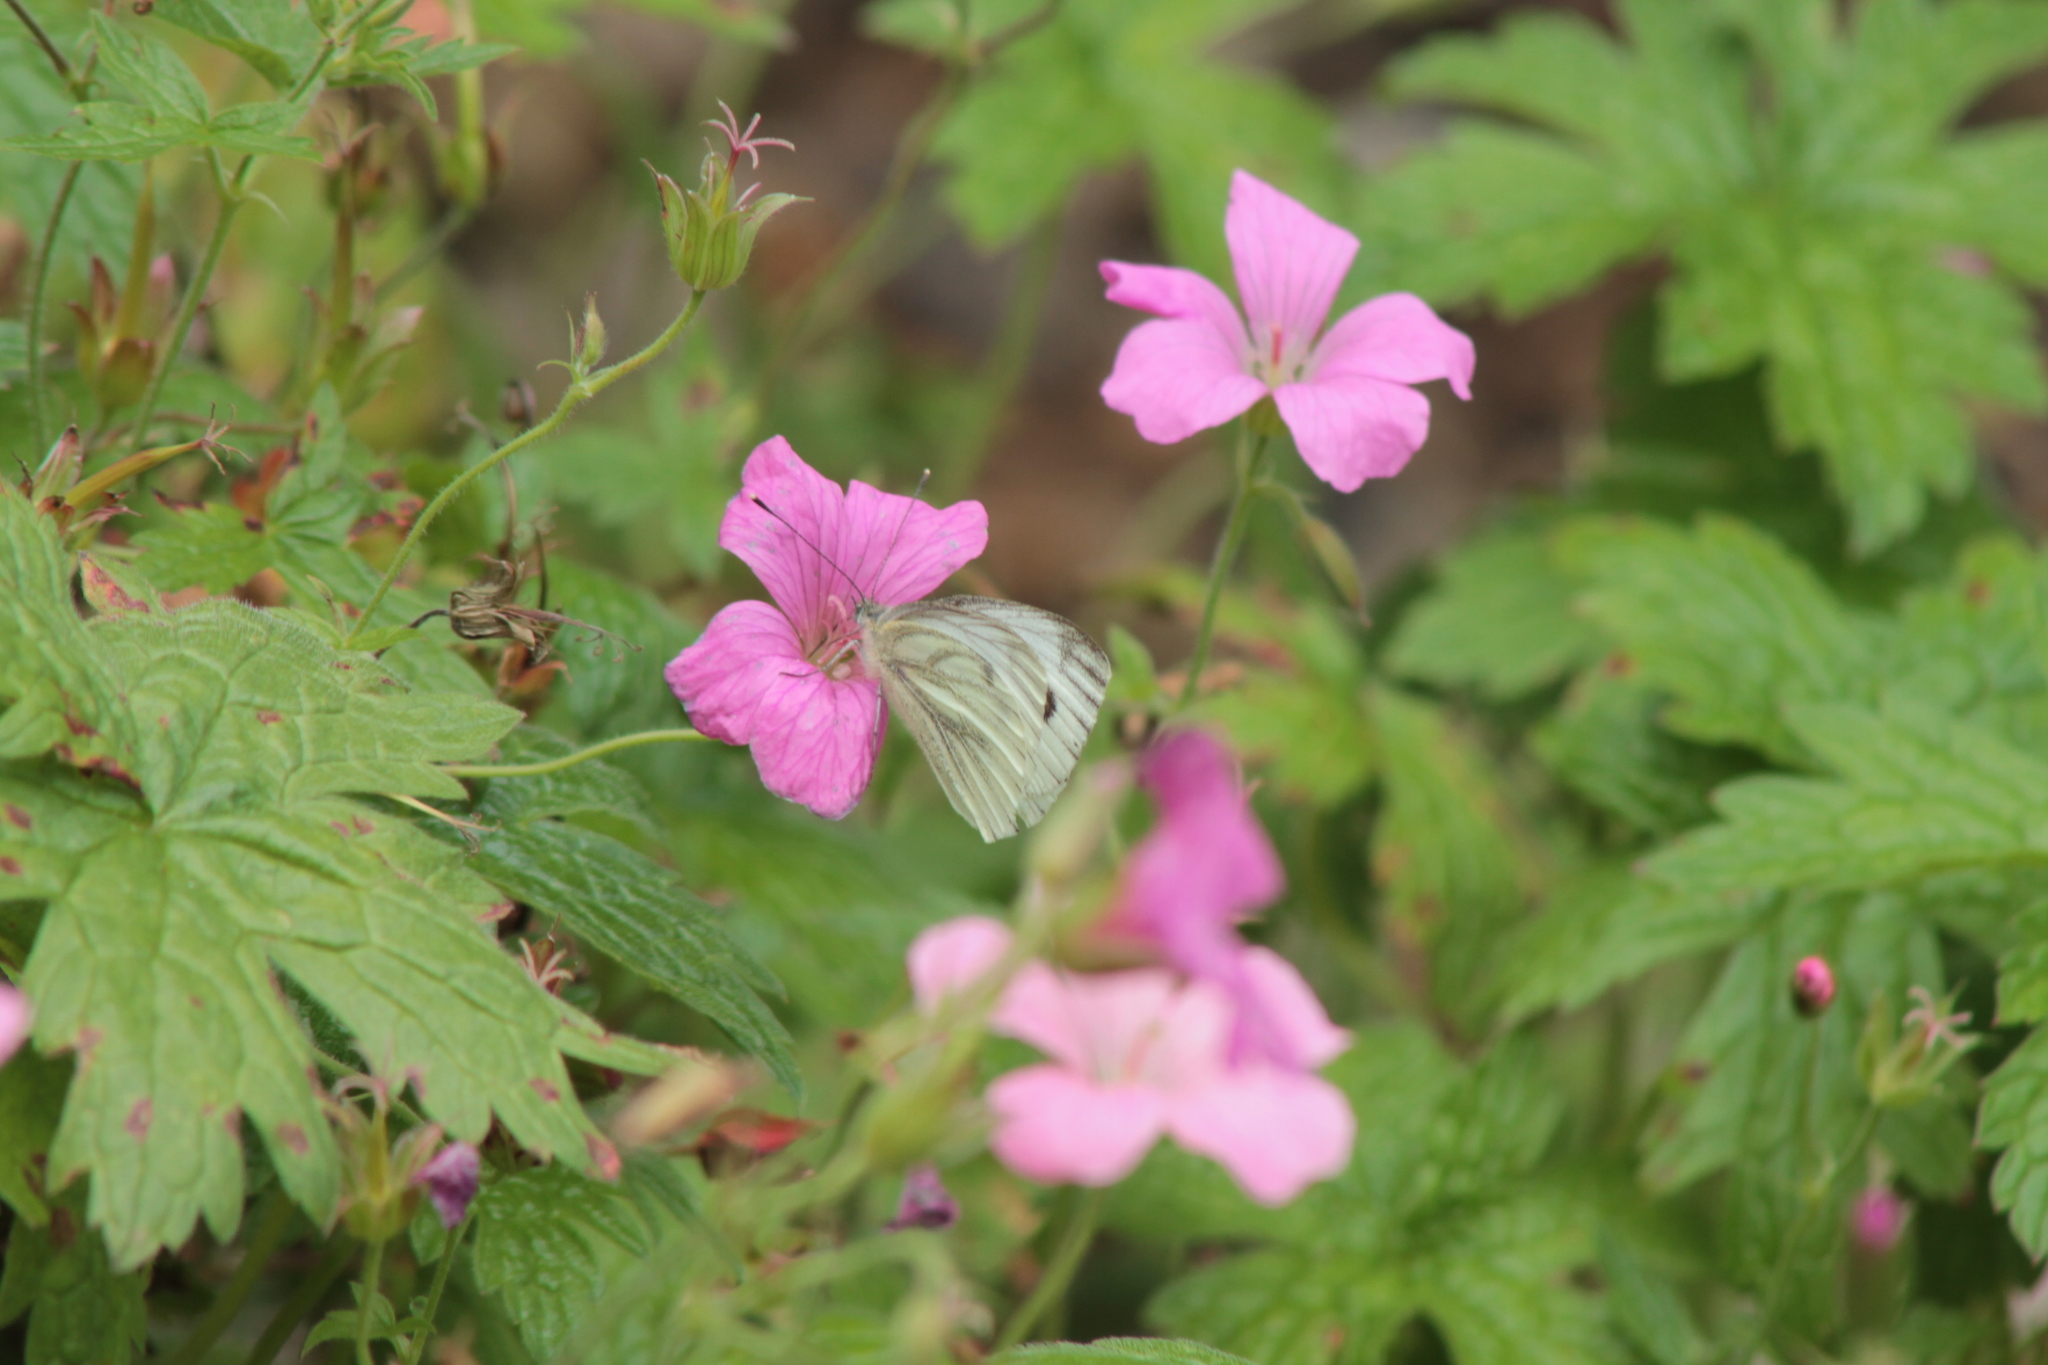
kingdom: Animalia
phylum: Arthropoda
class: Insecta
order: Lepidoptera
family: Pieridae
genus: Pieris
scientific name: Pieris napi
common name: Green-veined white
